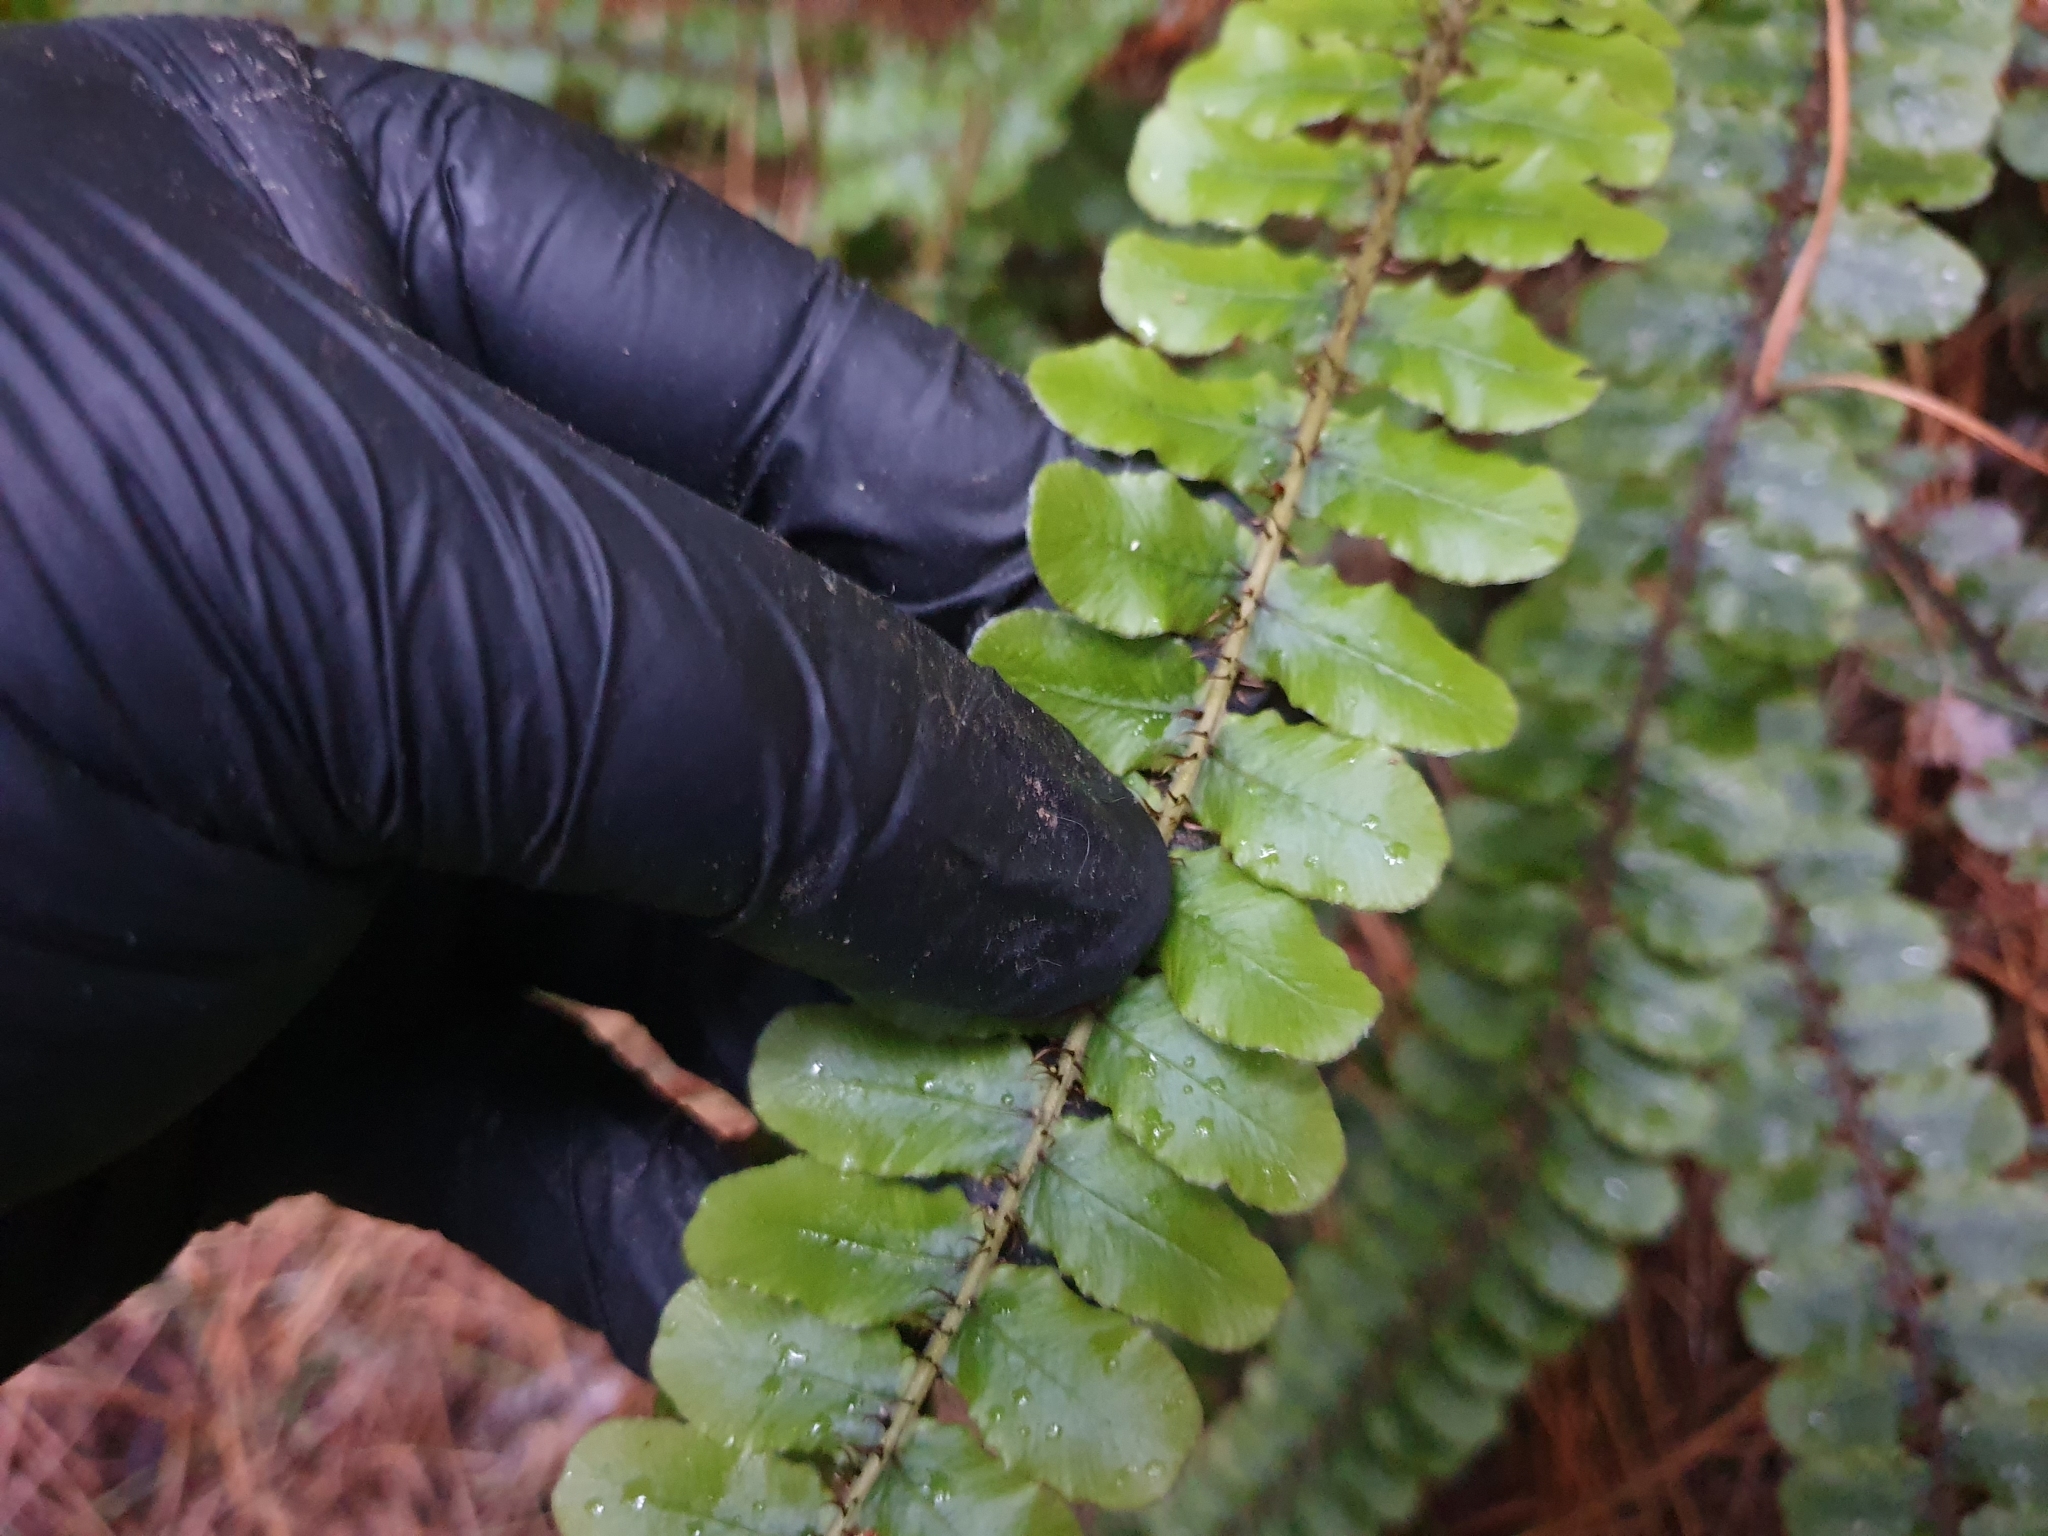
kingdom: Plantae
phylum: Tracheophyta
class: Polypodiopsida
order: Polypodiales
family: Blechnaceae
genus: Cranfillia
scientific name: Cranfillia fluviatilis
